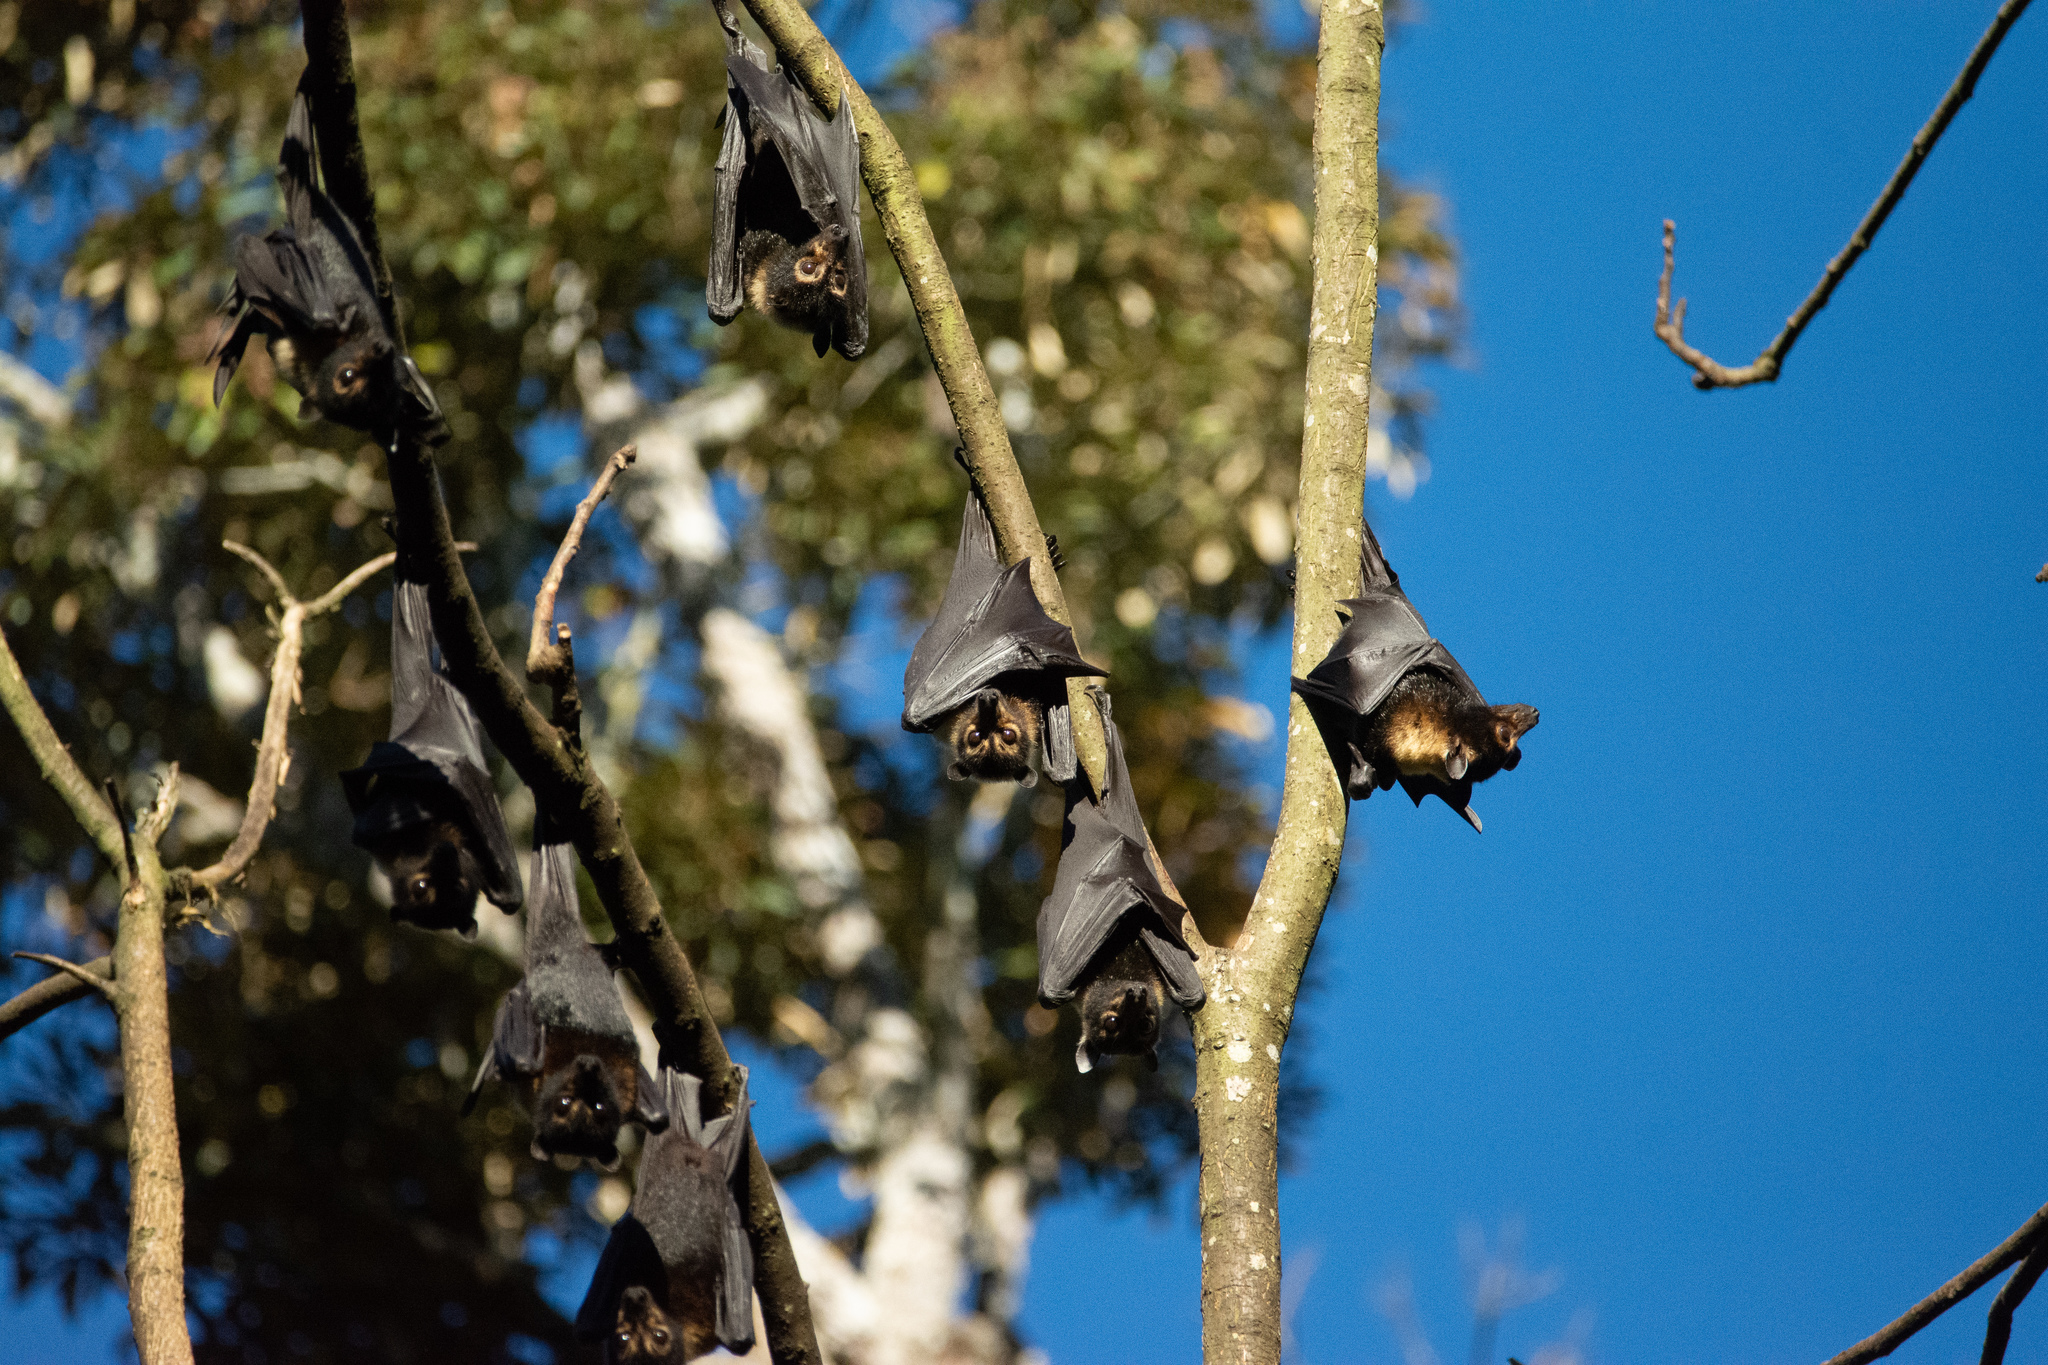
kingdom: Animalia
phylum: Chordata
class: Mammalia
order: Chiroptera
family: Pteropodidae
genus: Pteropus
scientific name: Pteropus conspicillatus
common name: Spectacled flying fox
